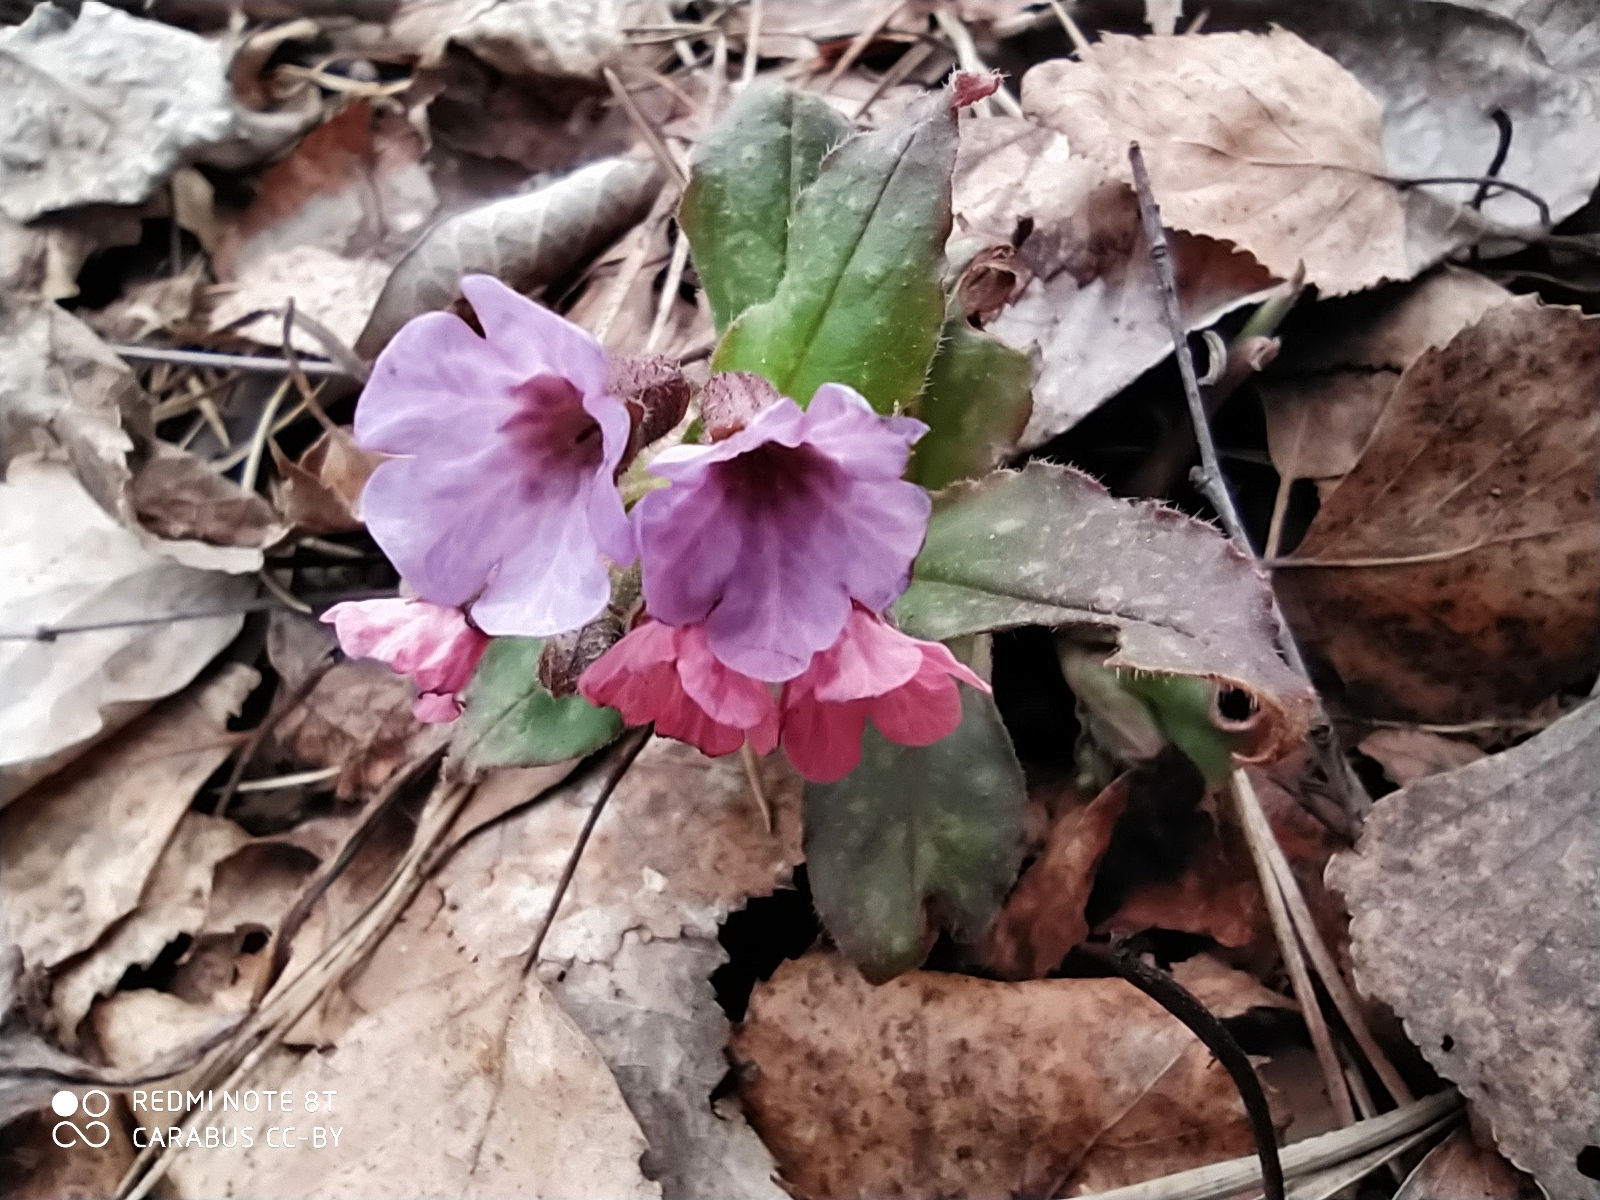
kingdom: Plantae
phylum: Tracheophyta
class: Magnoliopsida
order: Boraginales
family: Boraginaceae
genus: Pulmonaria
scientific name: Pulmonaria obscura
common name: Suffolk lungwort
